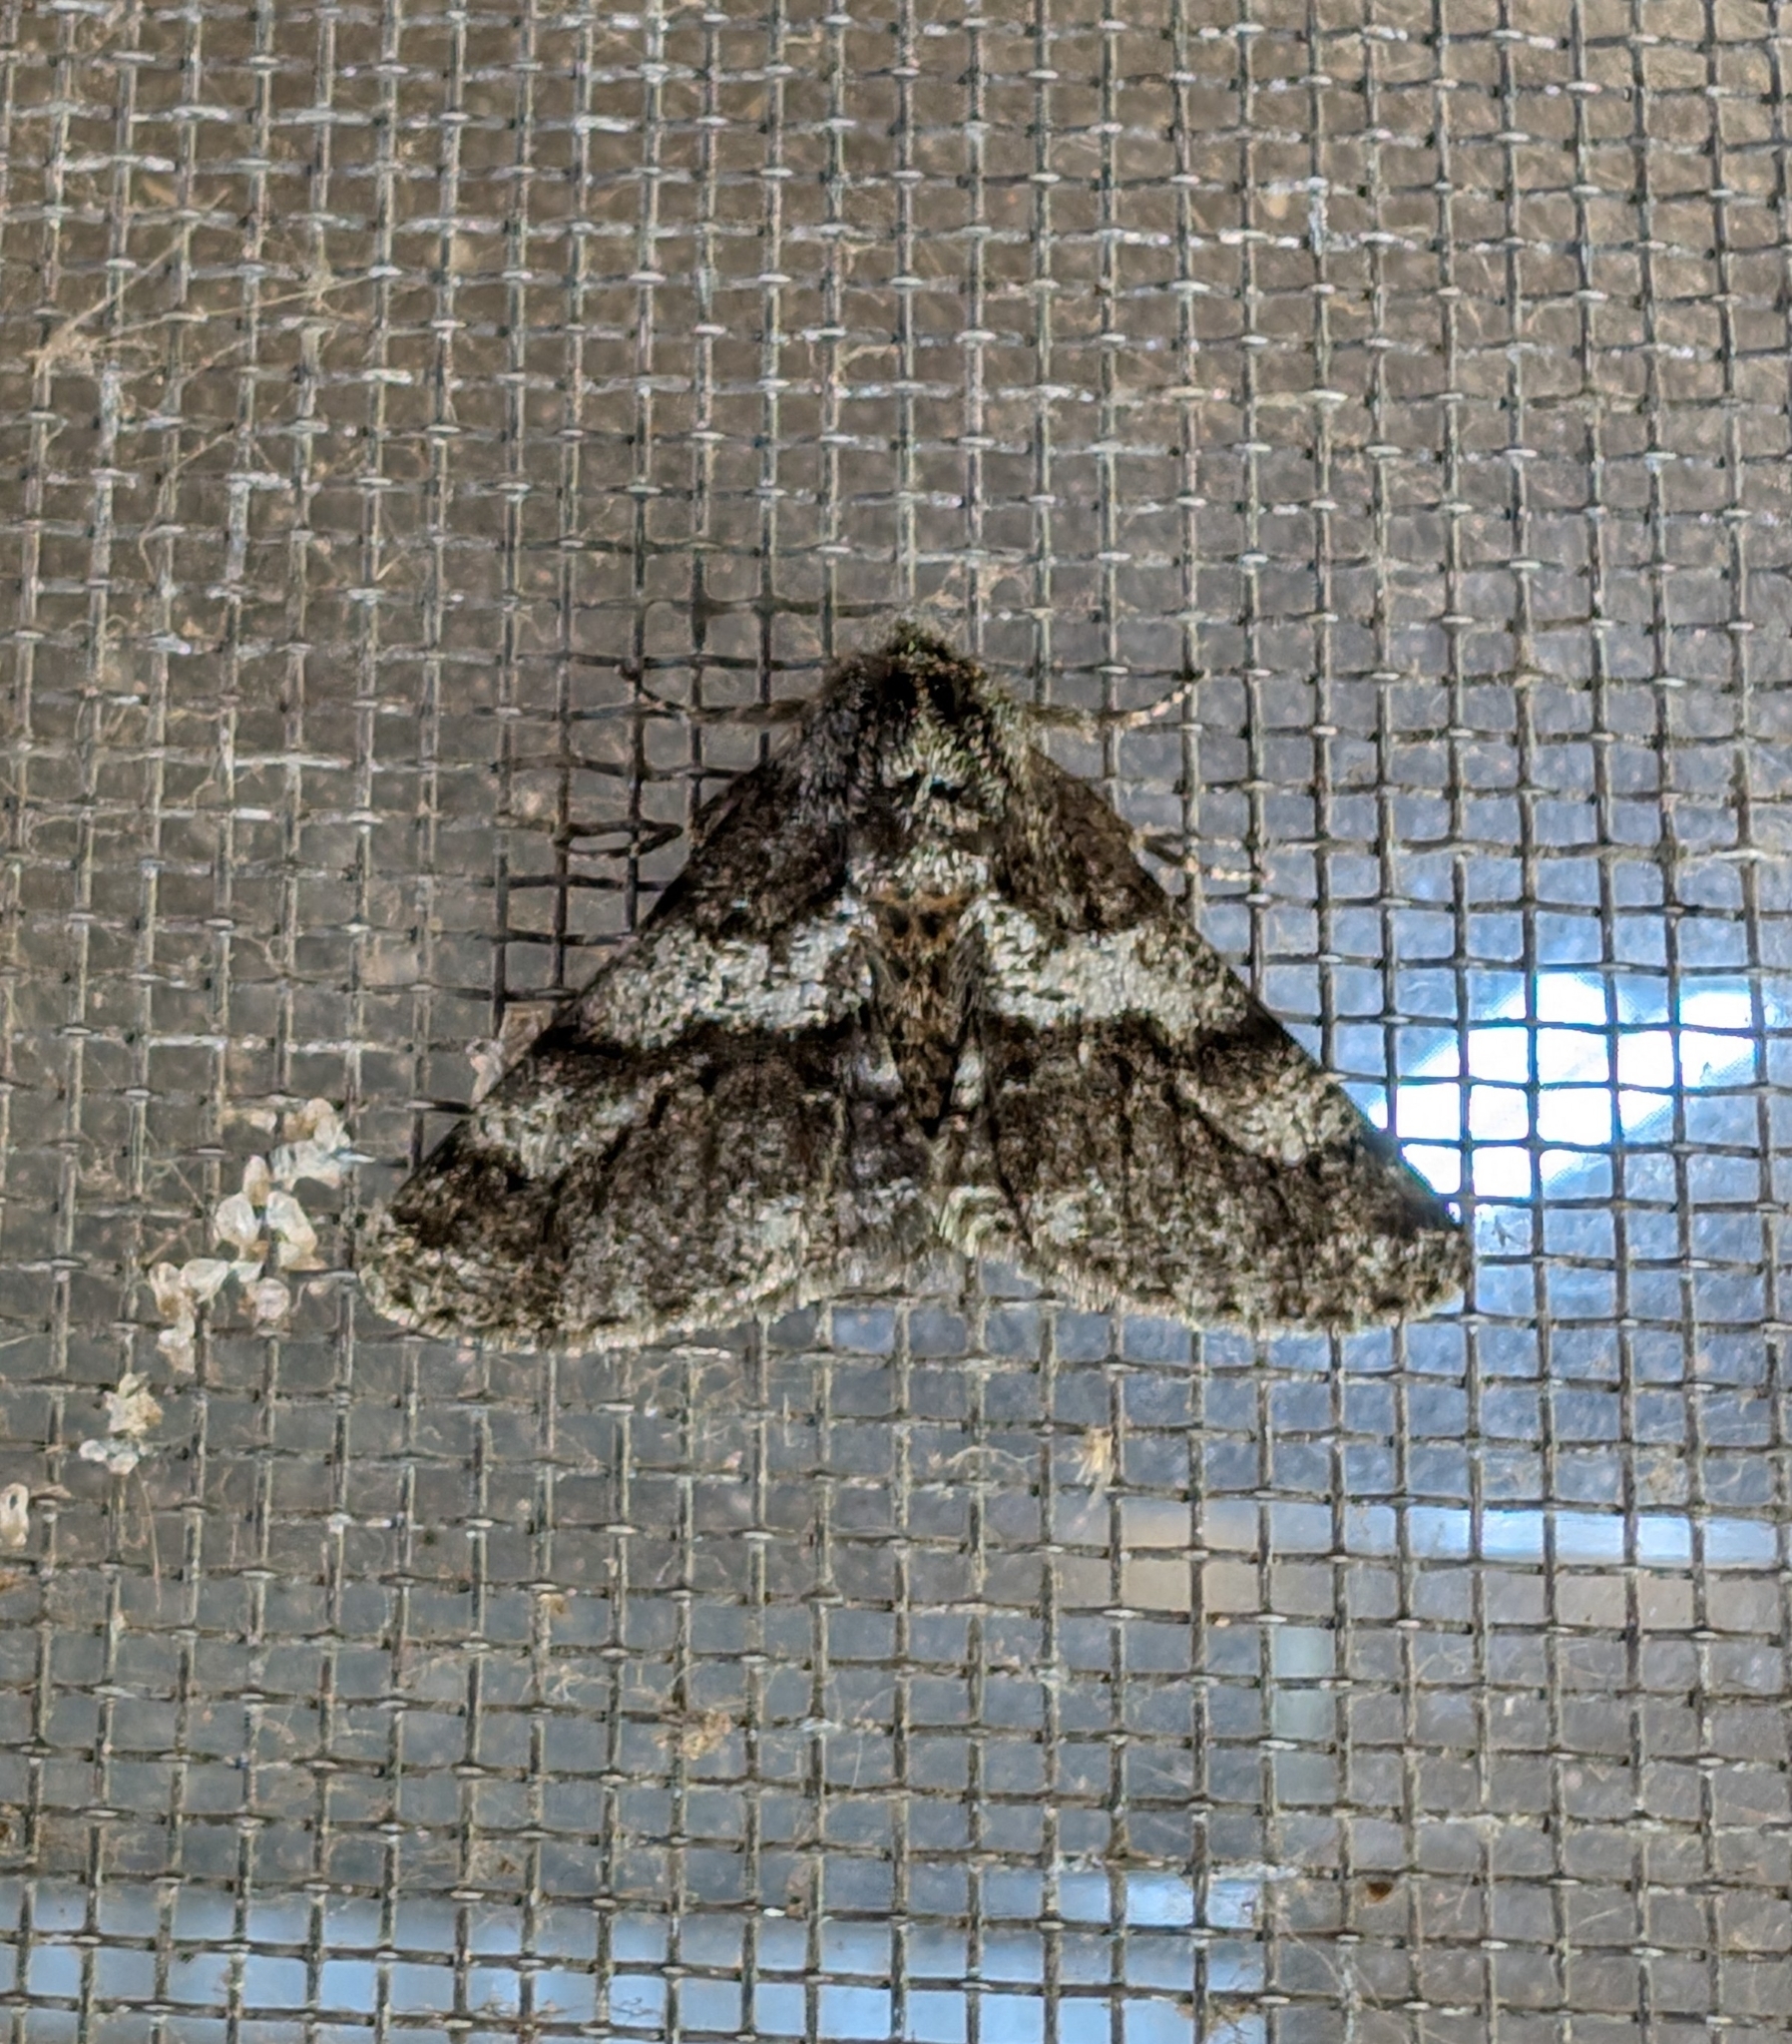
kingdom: Animalia
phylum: Arthropoda
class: Insecta
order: Lepidoptera
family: Geometridae
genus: Lycia
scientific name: Lycia ypsilon
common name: Wooly gray
